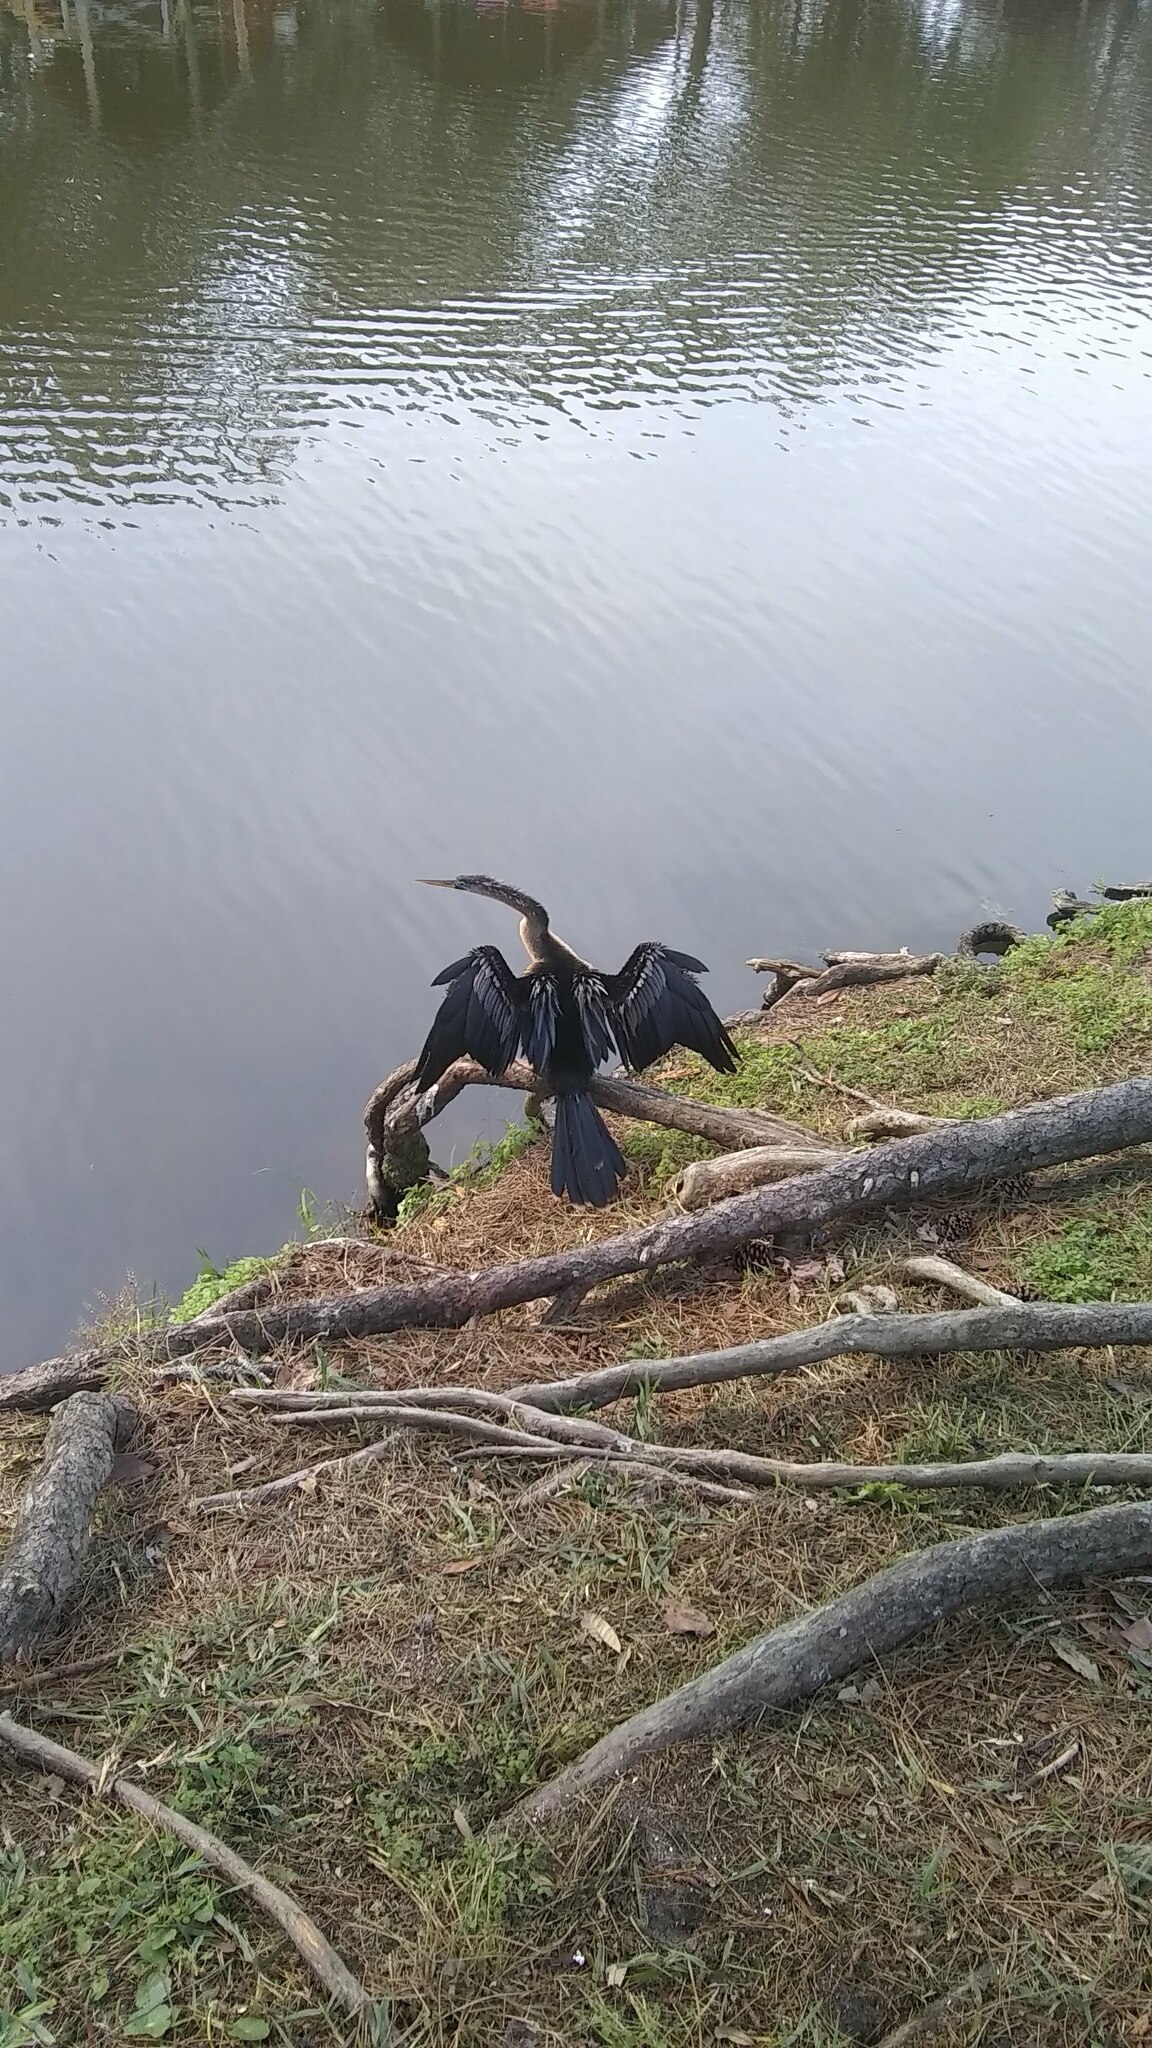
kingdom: Animalia
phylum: Chordata
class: Aves
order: Suliformes
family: Anhingidae
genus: Anhinga
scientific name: Anhinga anhinga
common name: Anhinga
